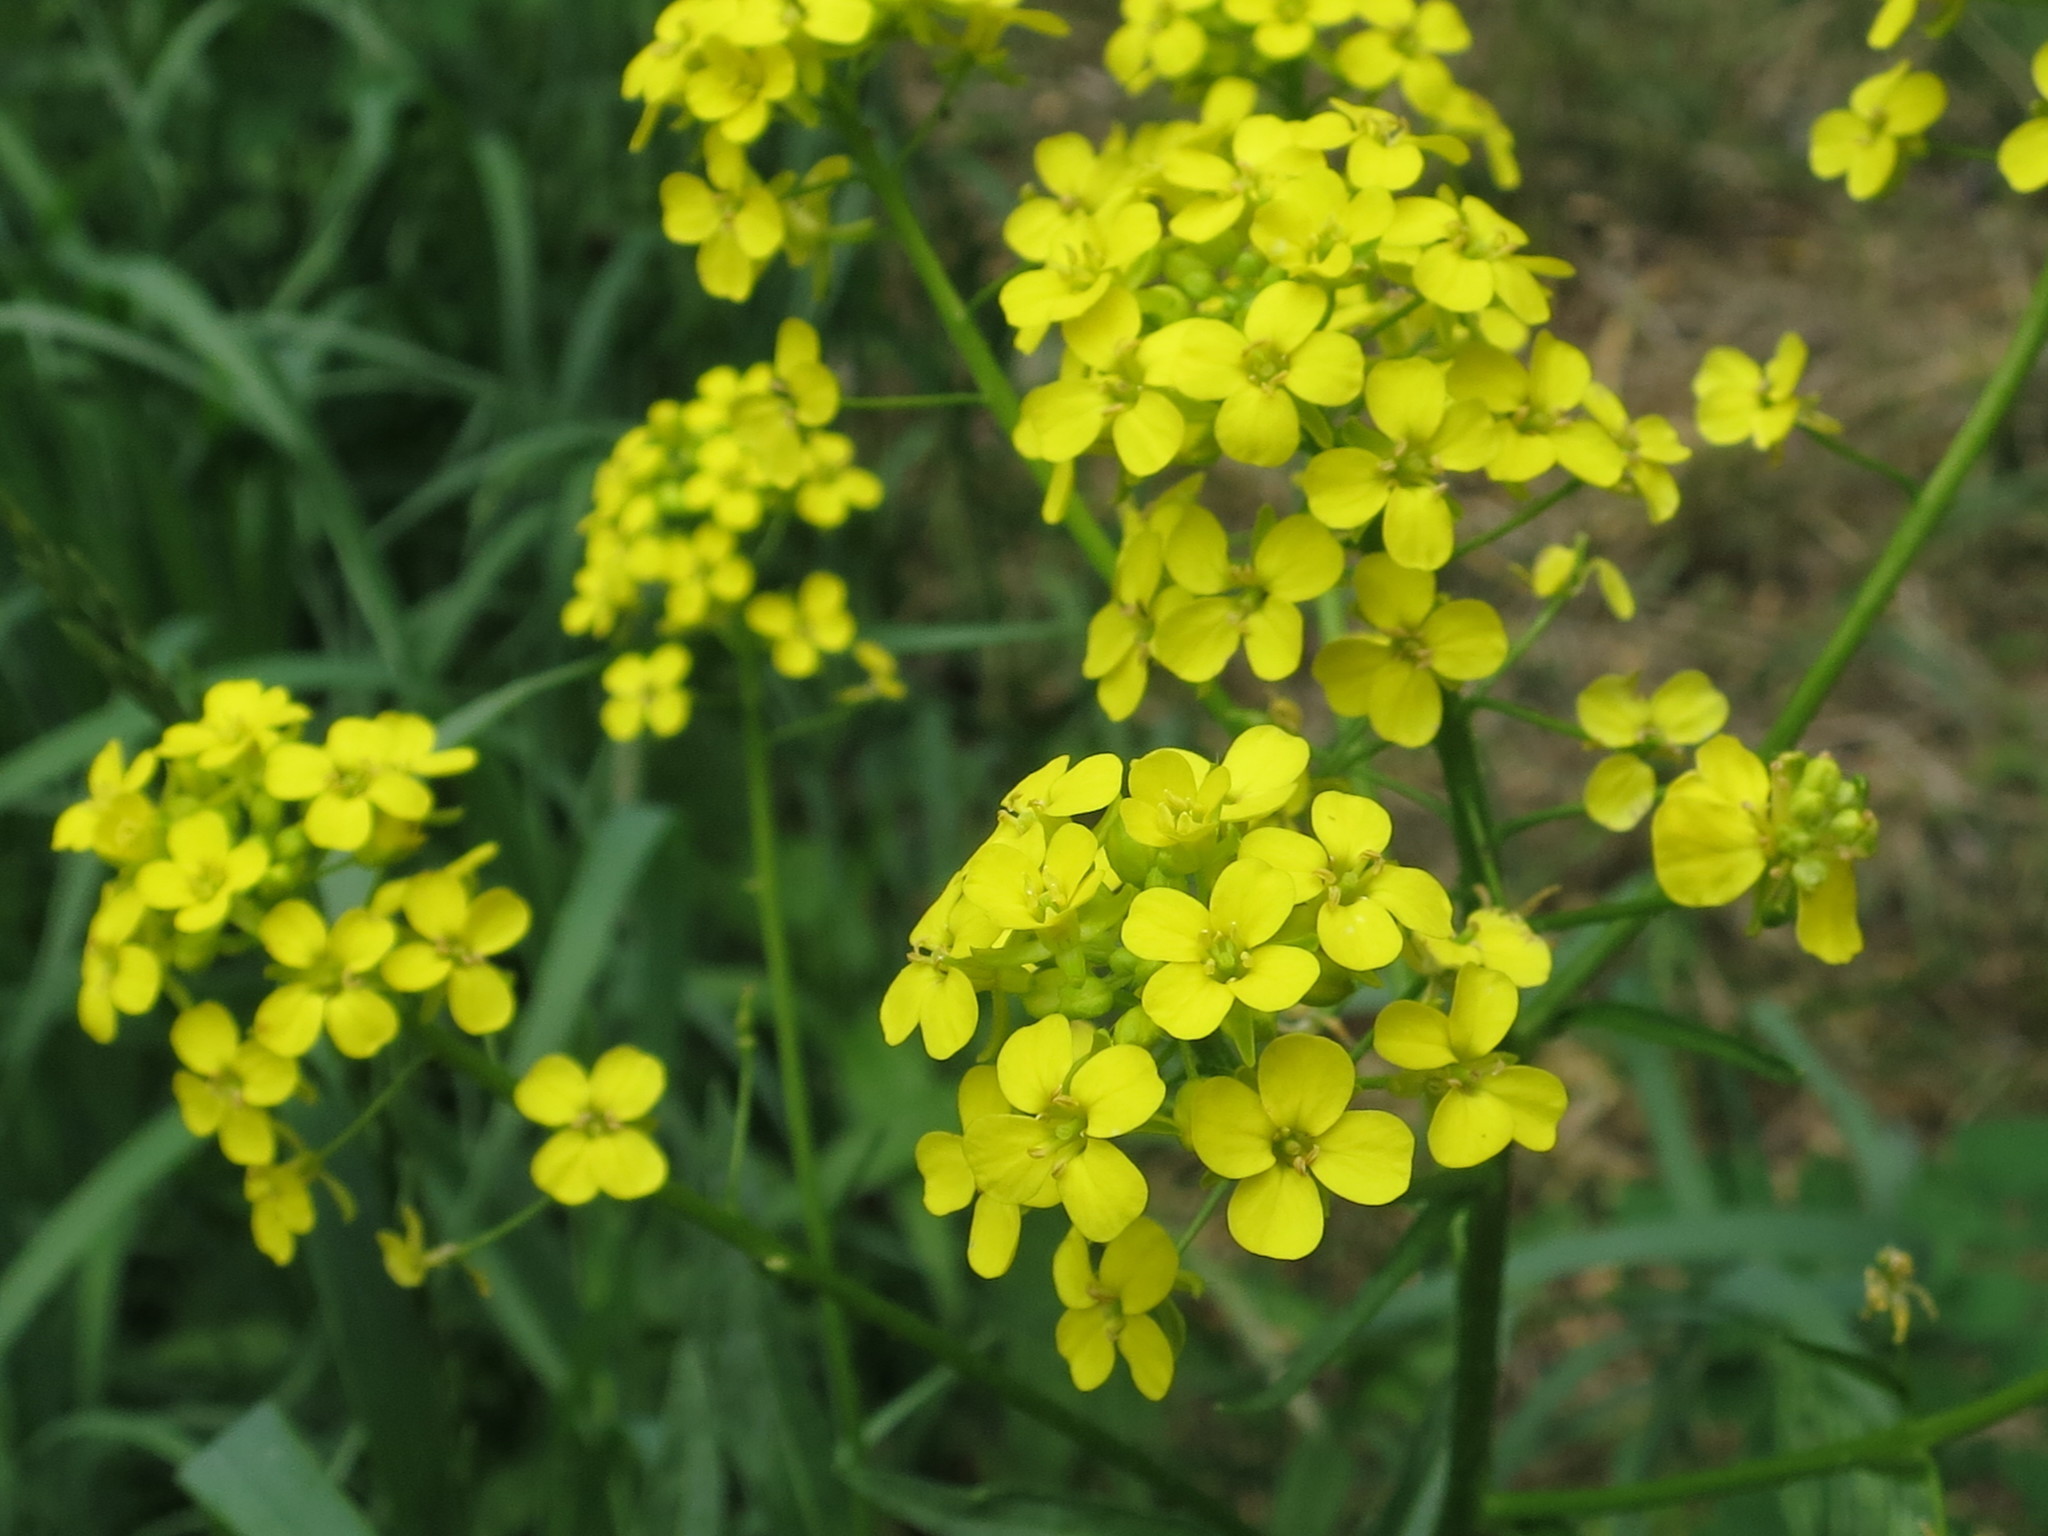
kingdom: Plantae
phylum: Tracheophyta
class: Magnoliopsida
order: Brassicales
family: Brassicaceae
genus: Bunias
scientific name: Bunias orientalis
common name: Warty-cabbage
